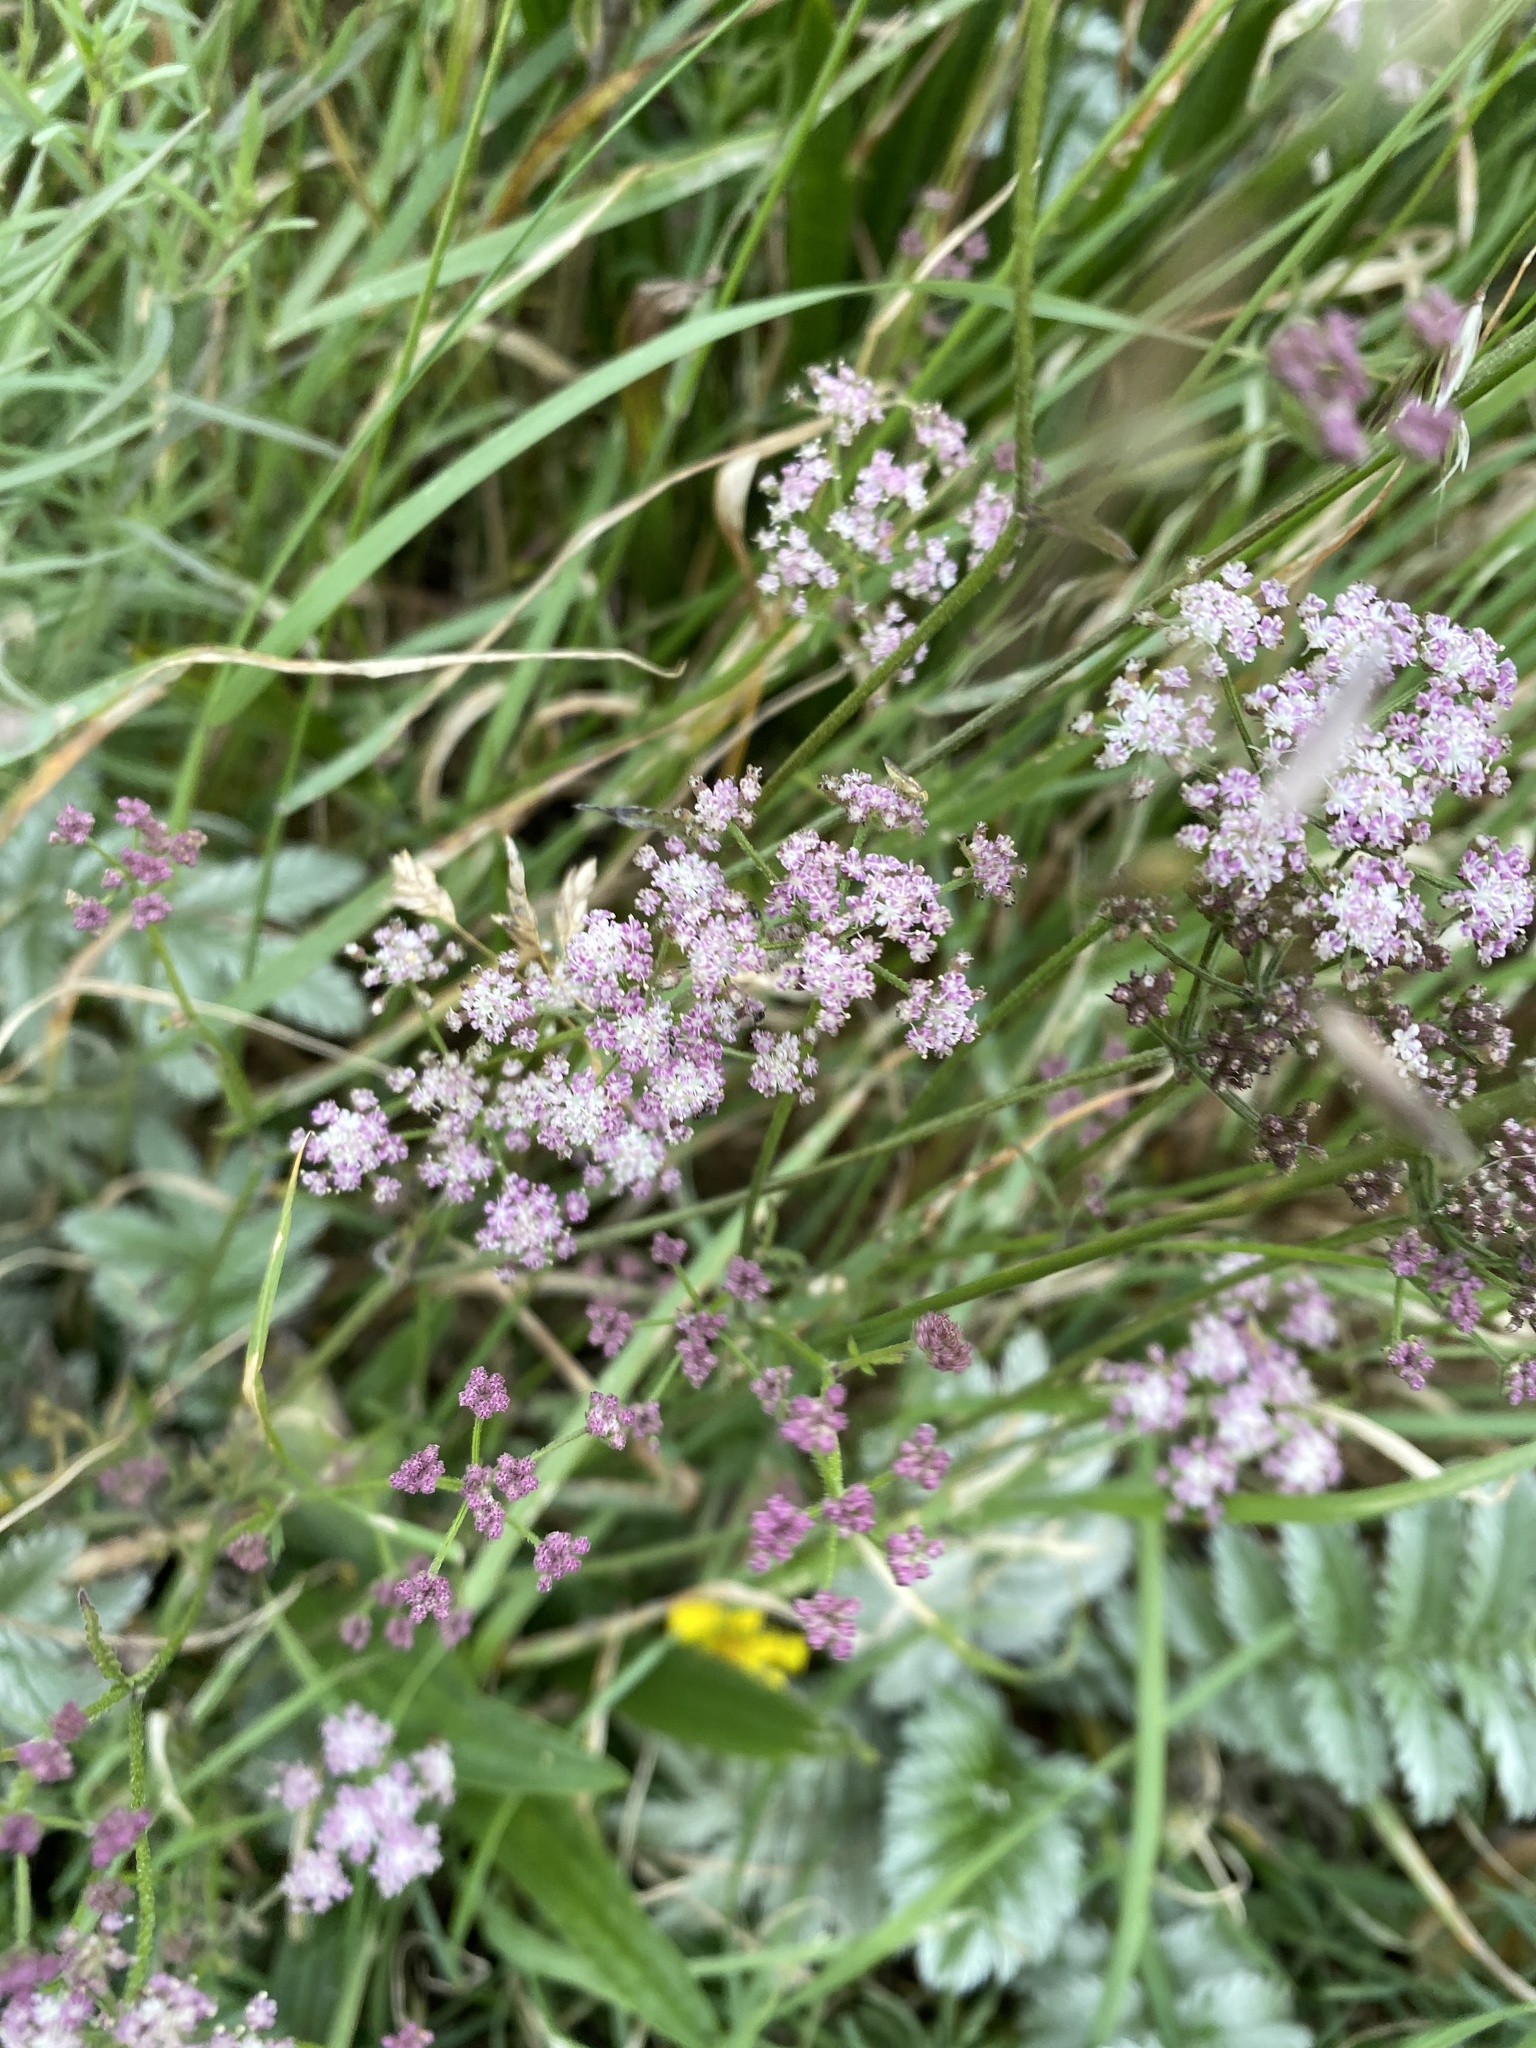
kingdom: Plantae
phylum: Tracheophyta
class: Magnoliopsida
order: Apiales
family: Apiaceae
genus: Torilis
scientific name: Torilis japonica
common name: Upright hedge-parsley
